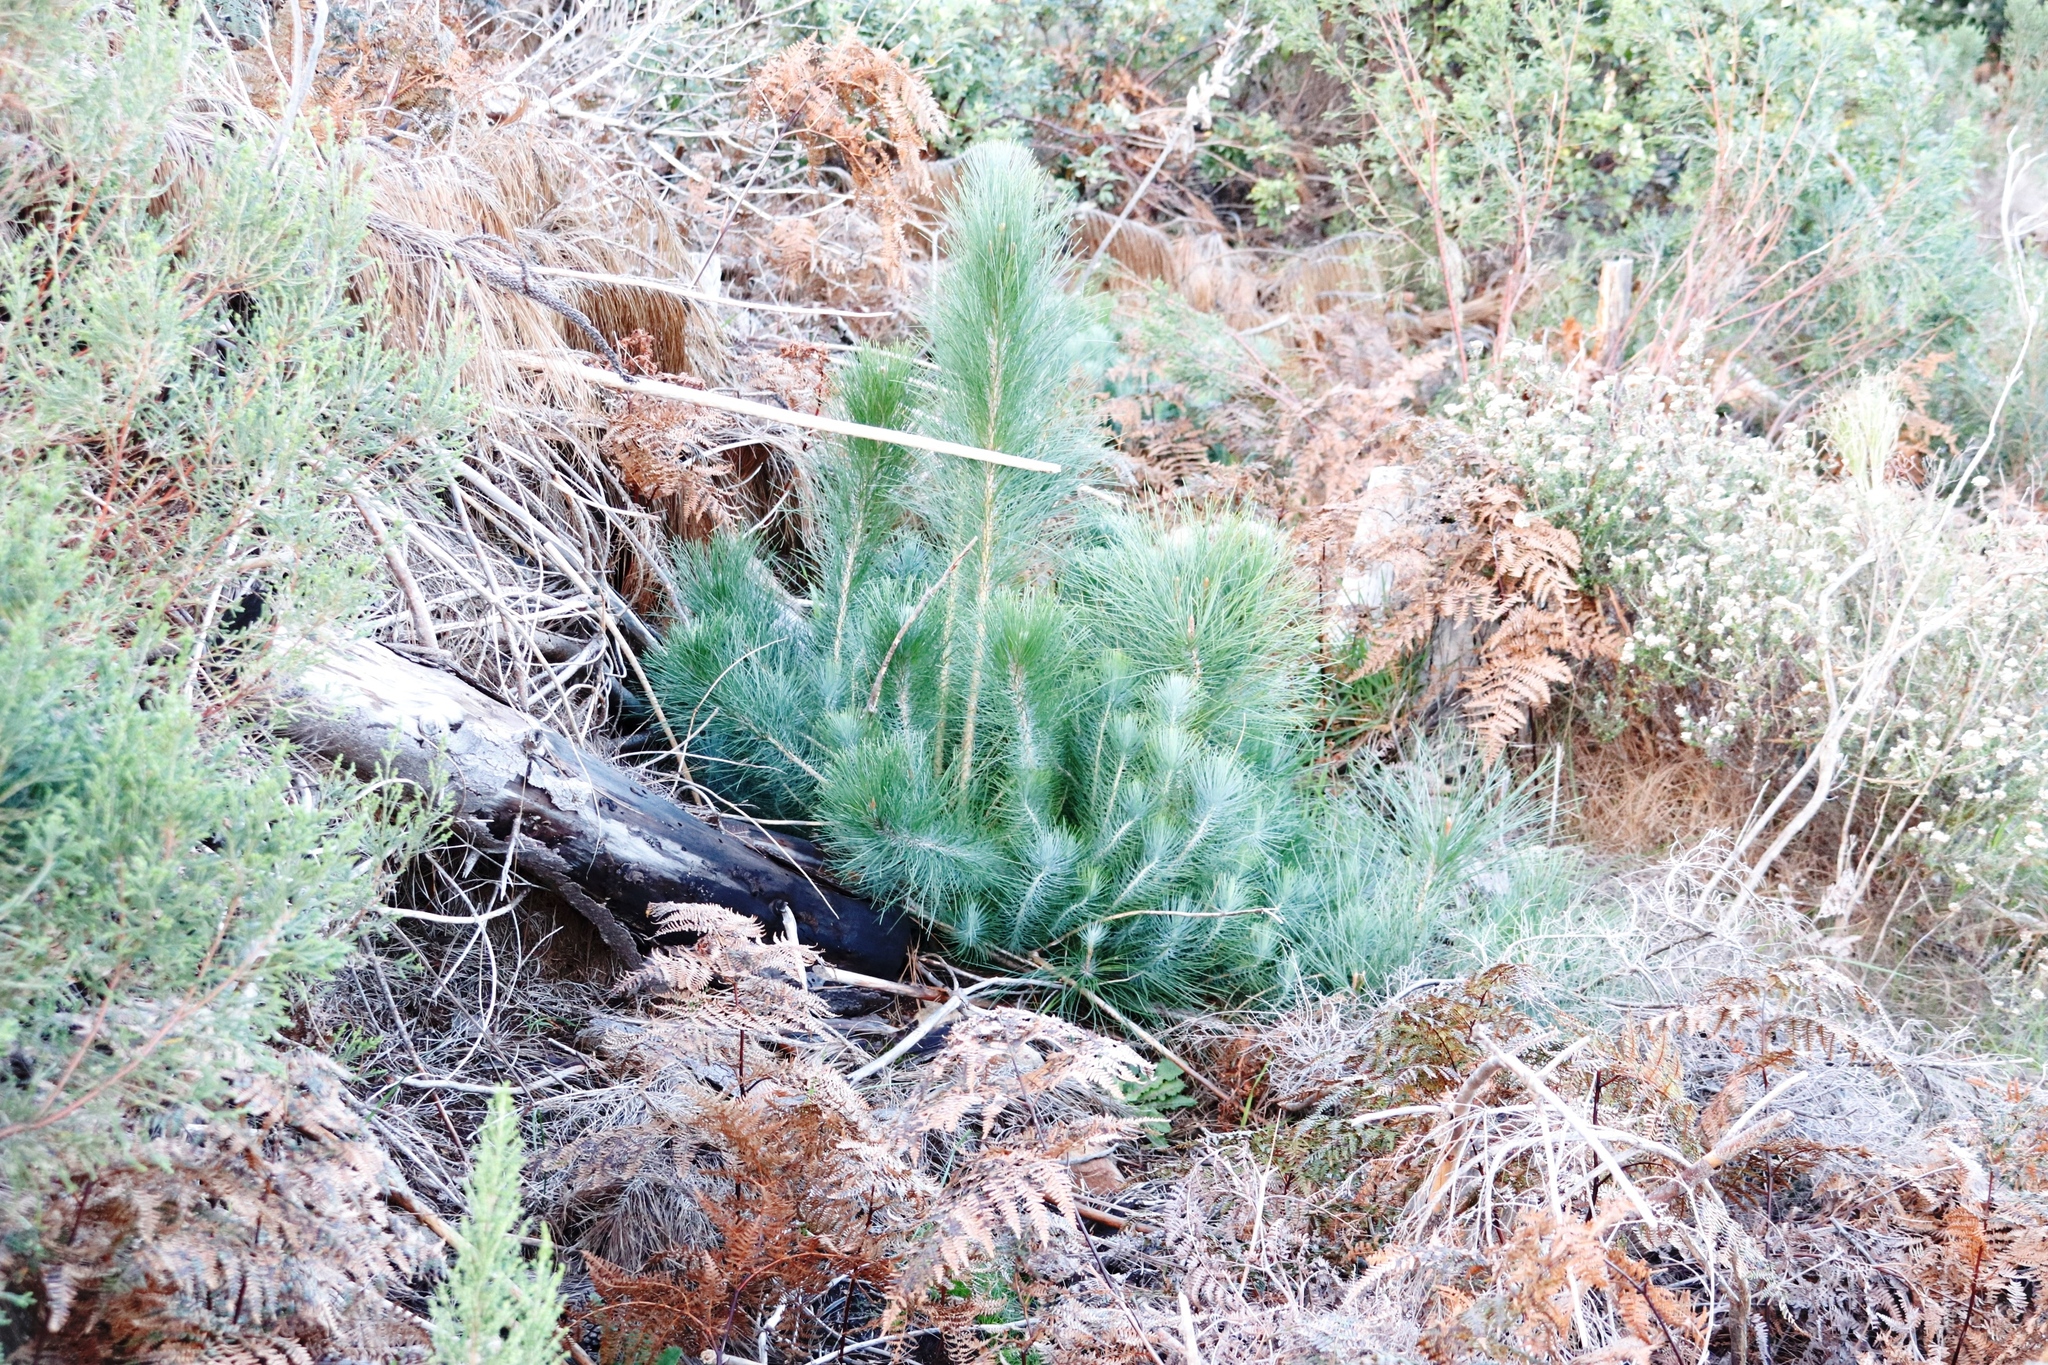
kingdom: Plantae
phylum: Tracheophyta
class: Pinopsida
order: Pinales
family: Pinaceae
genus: Pinus
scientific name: Pinus canariensis
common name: Canary islands pine
